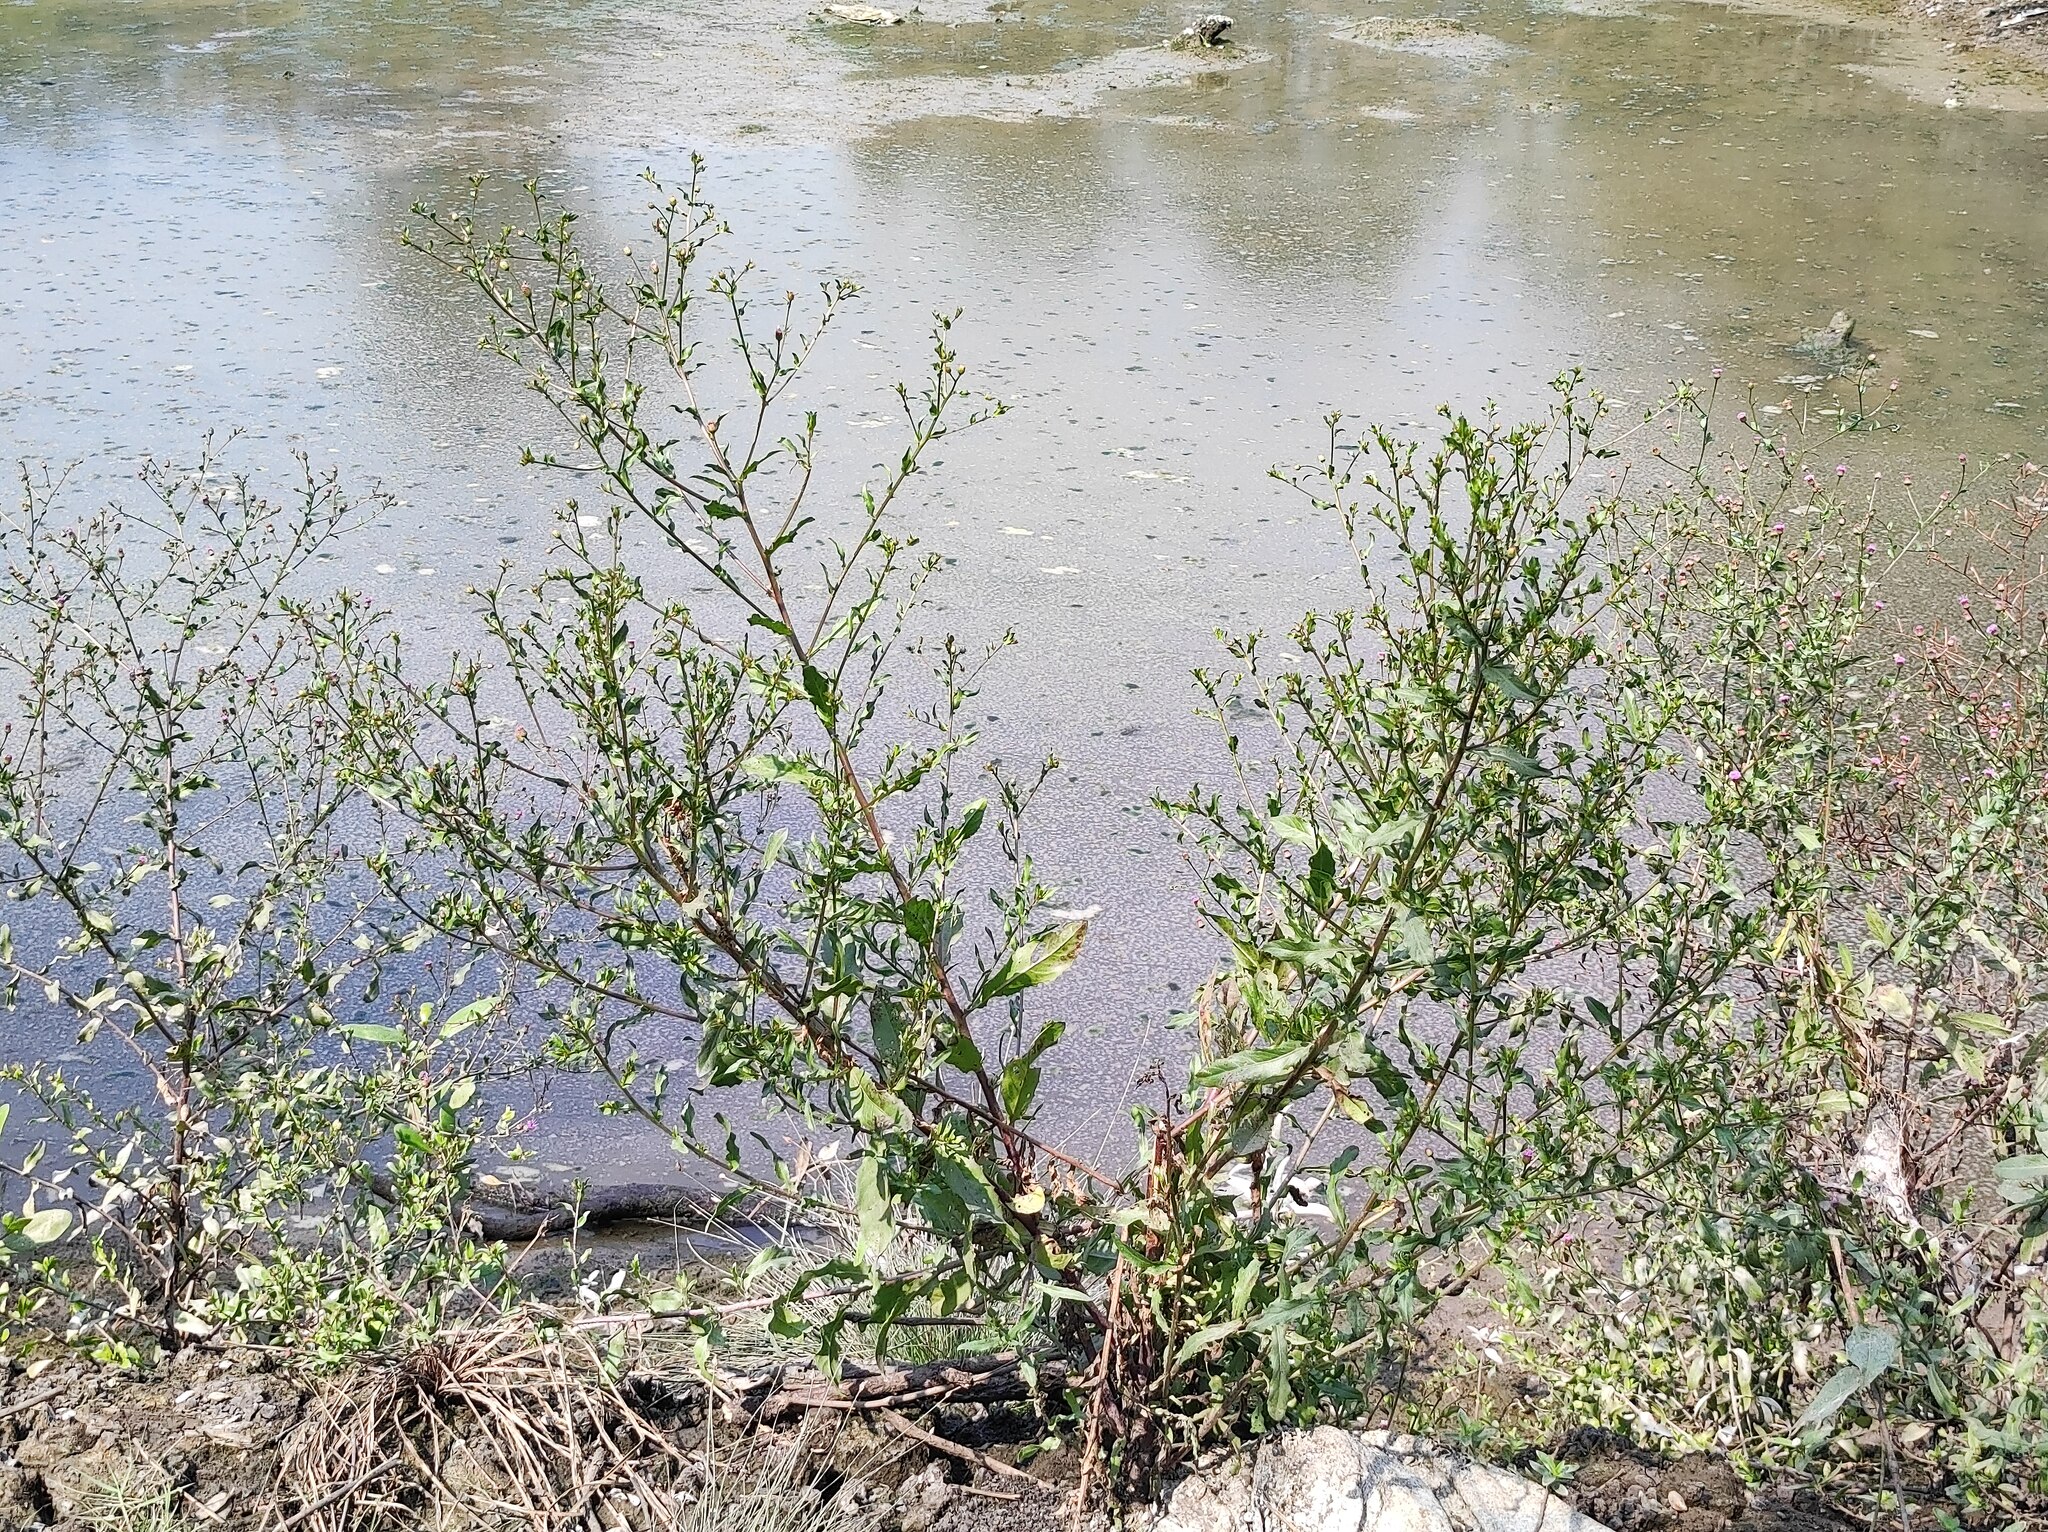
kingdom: Plantae
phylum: Tracheophyta
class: Magnoliopsida
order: Asterales
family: Asteraceae
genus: Blumea
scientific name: Blumea obliqua
